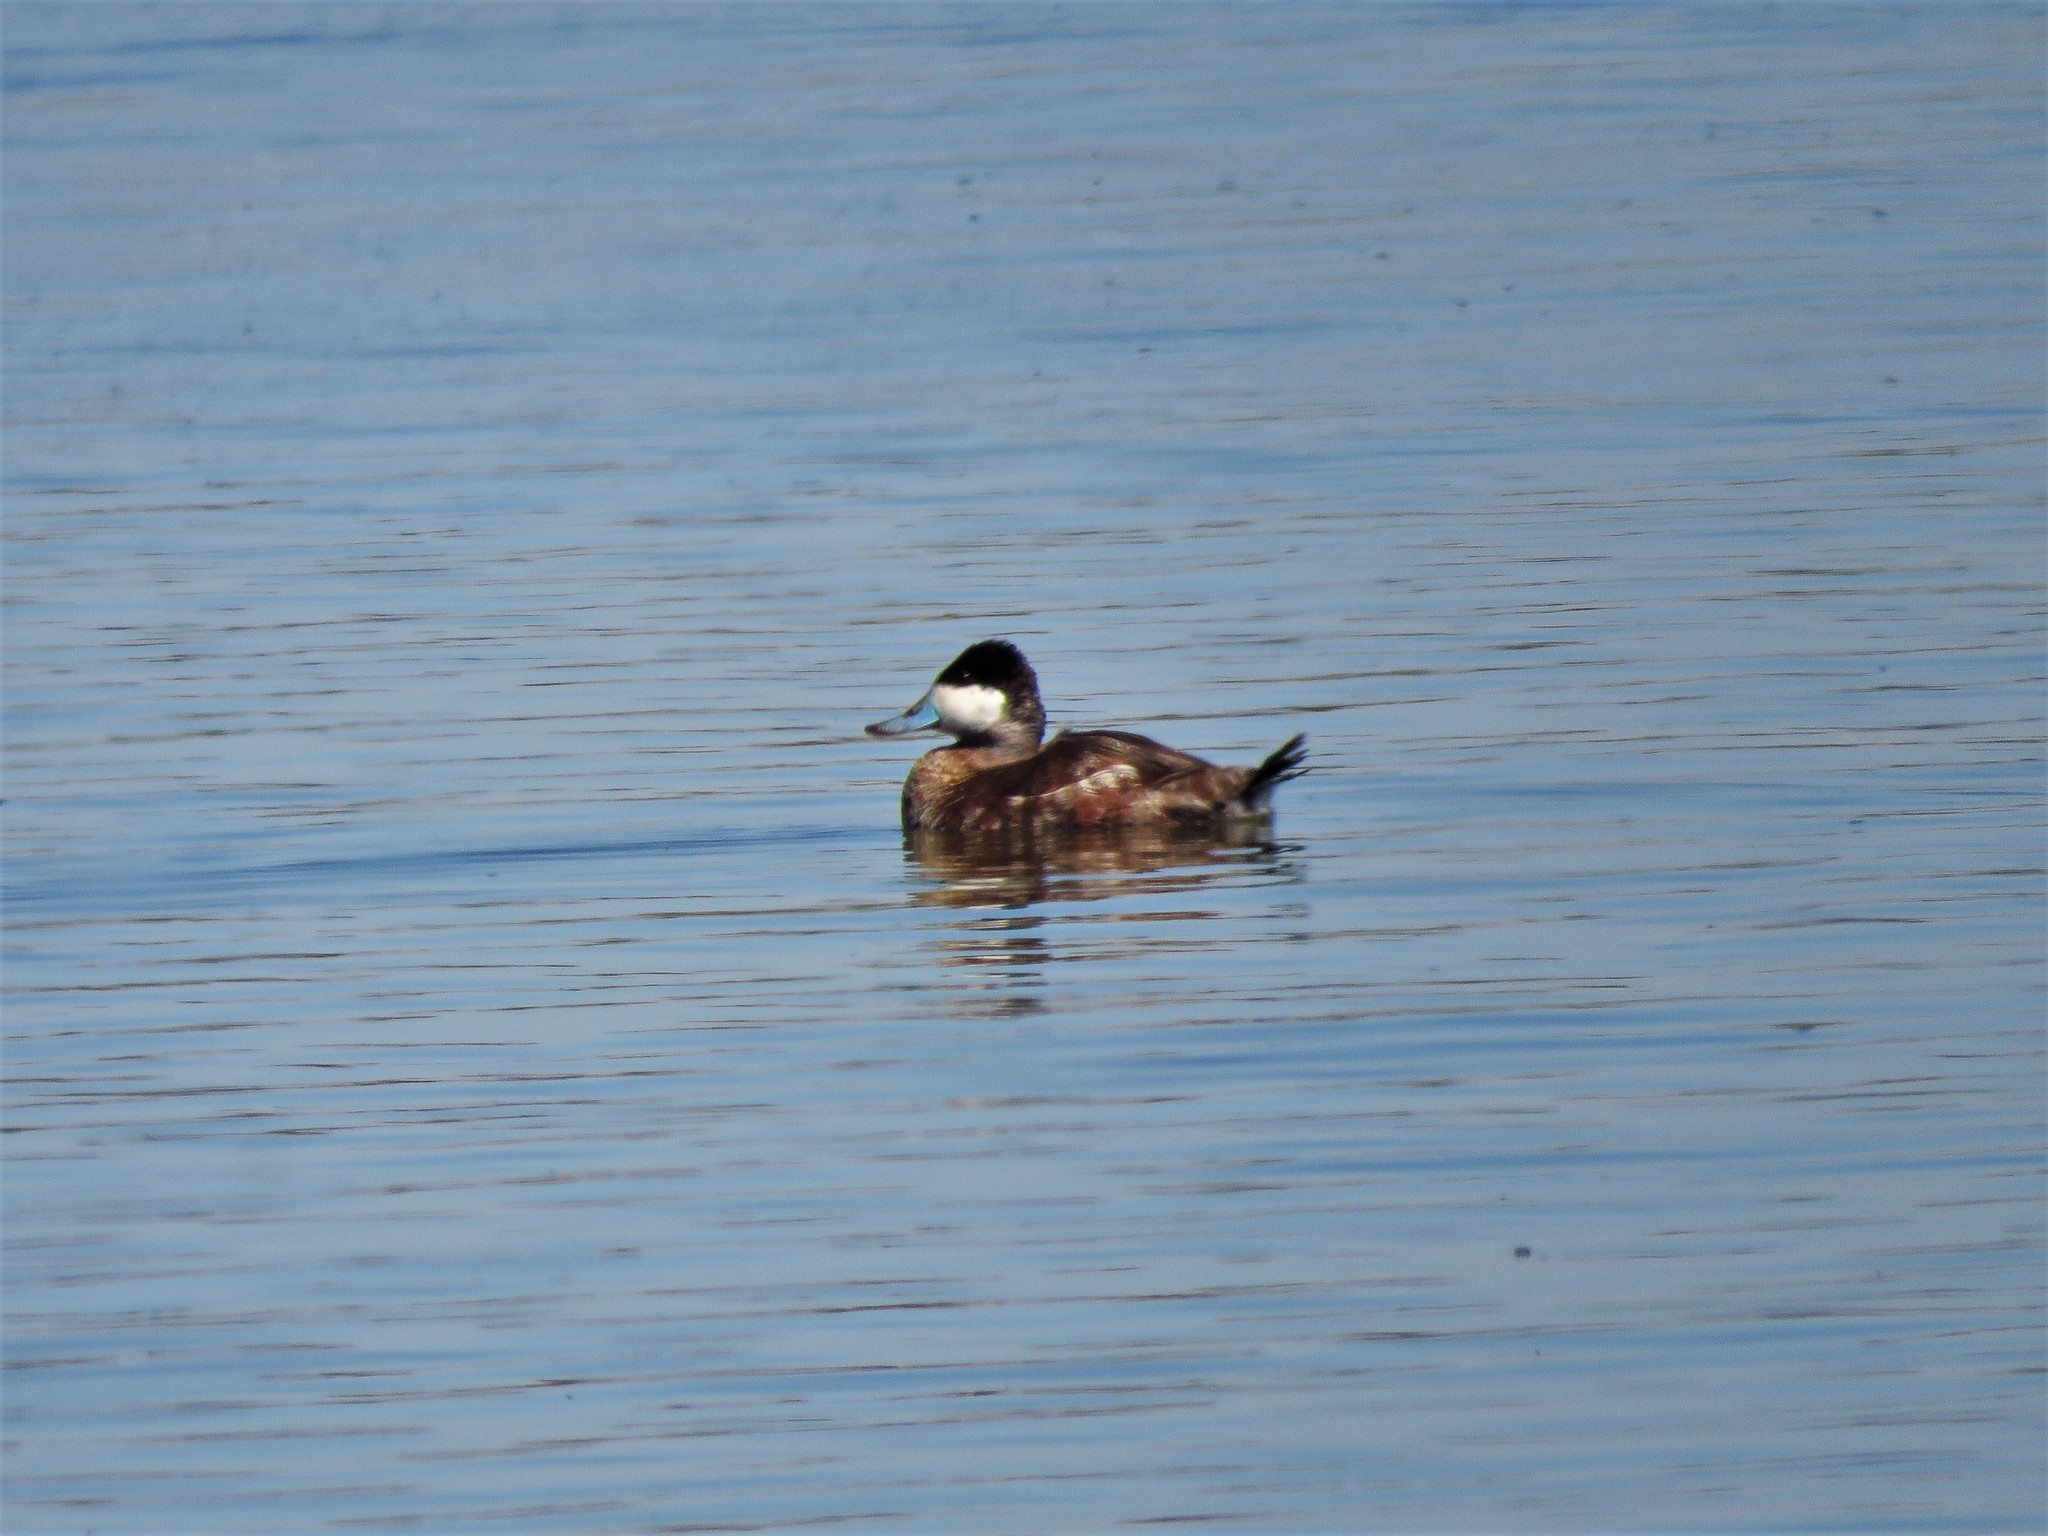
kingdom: Animalia
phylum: Chordata
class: Aves
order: Anseriformes
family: Anatidae
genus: Oxyura
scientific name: Oxyura jamaicensis
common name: Ruddy duck
